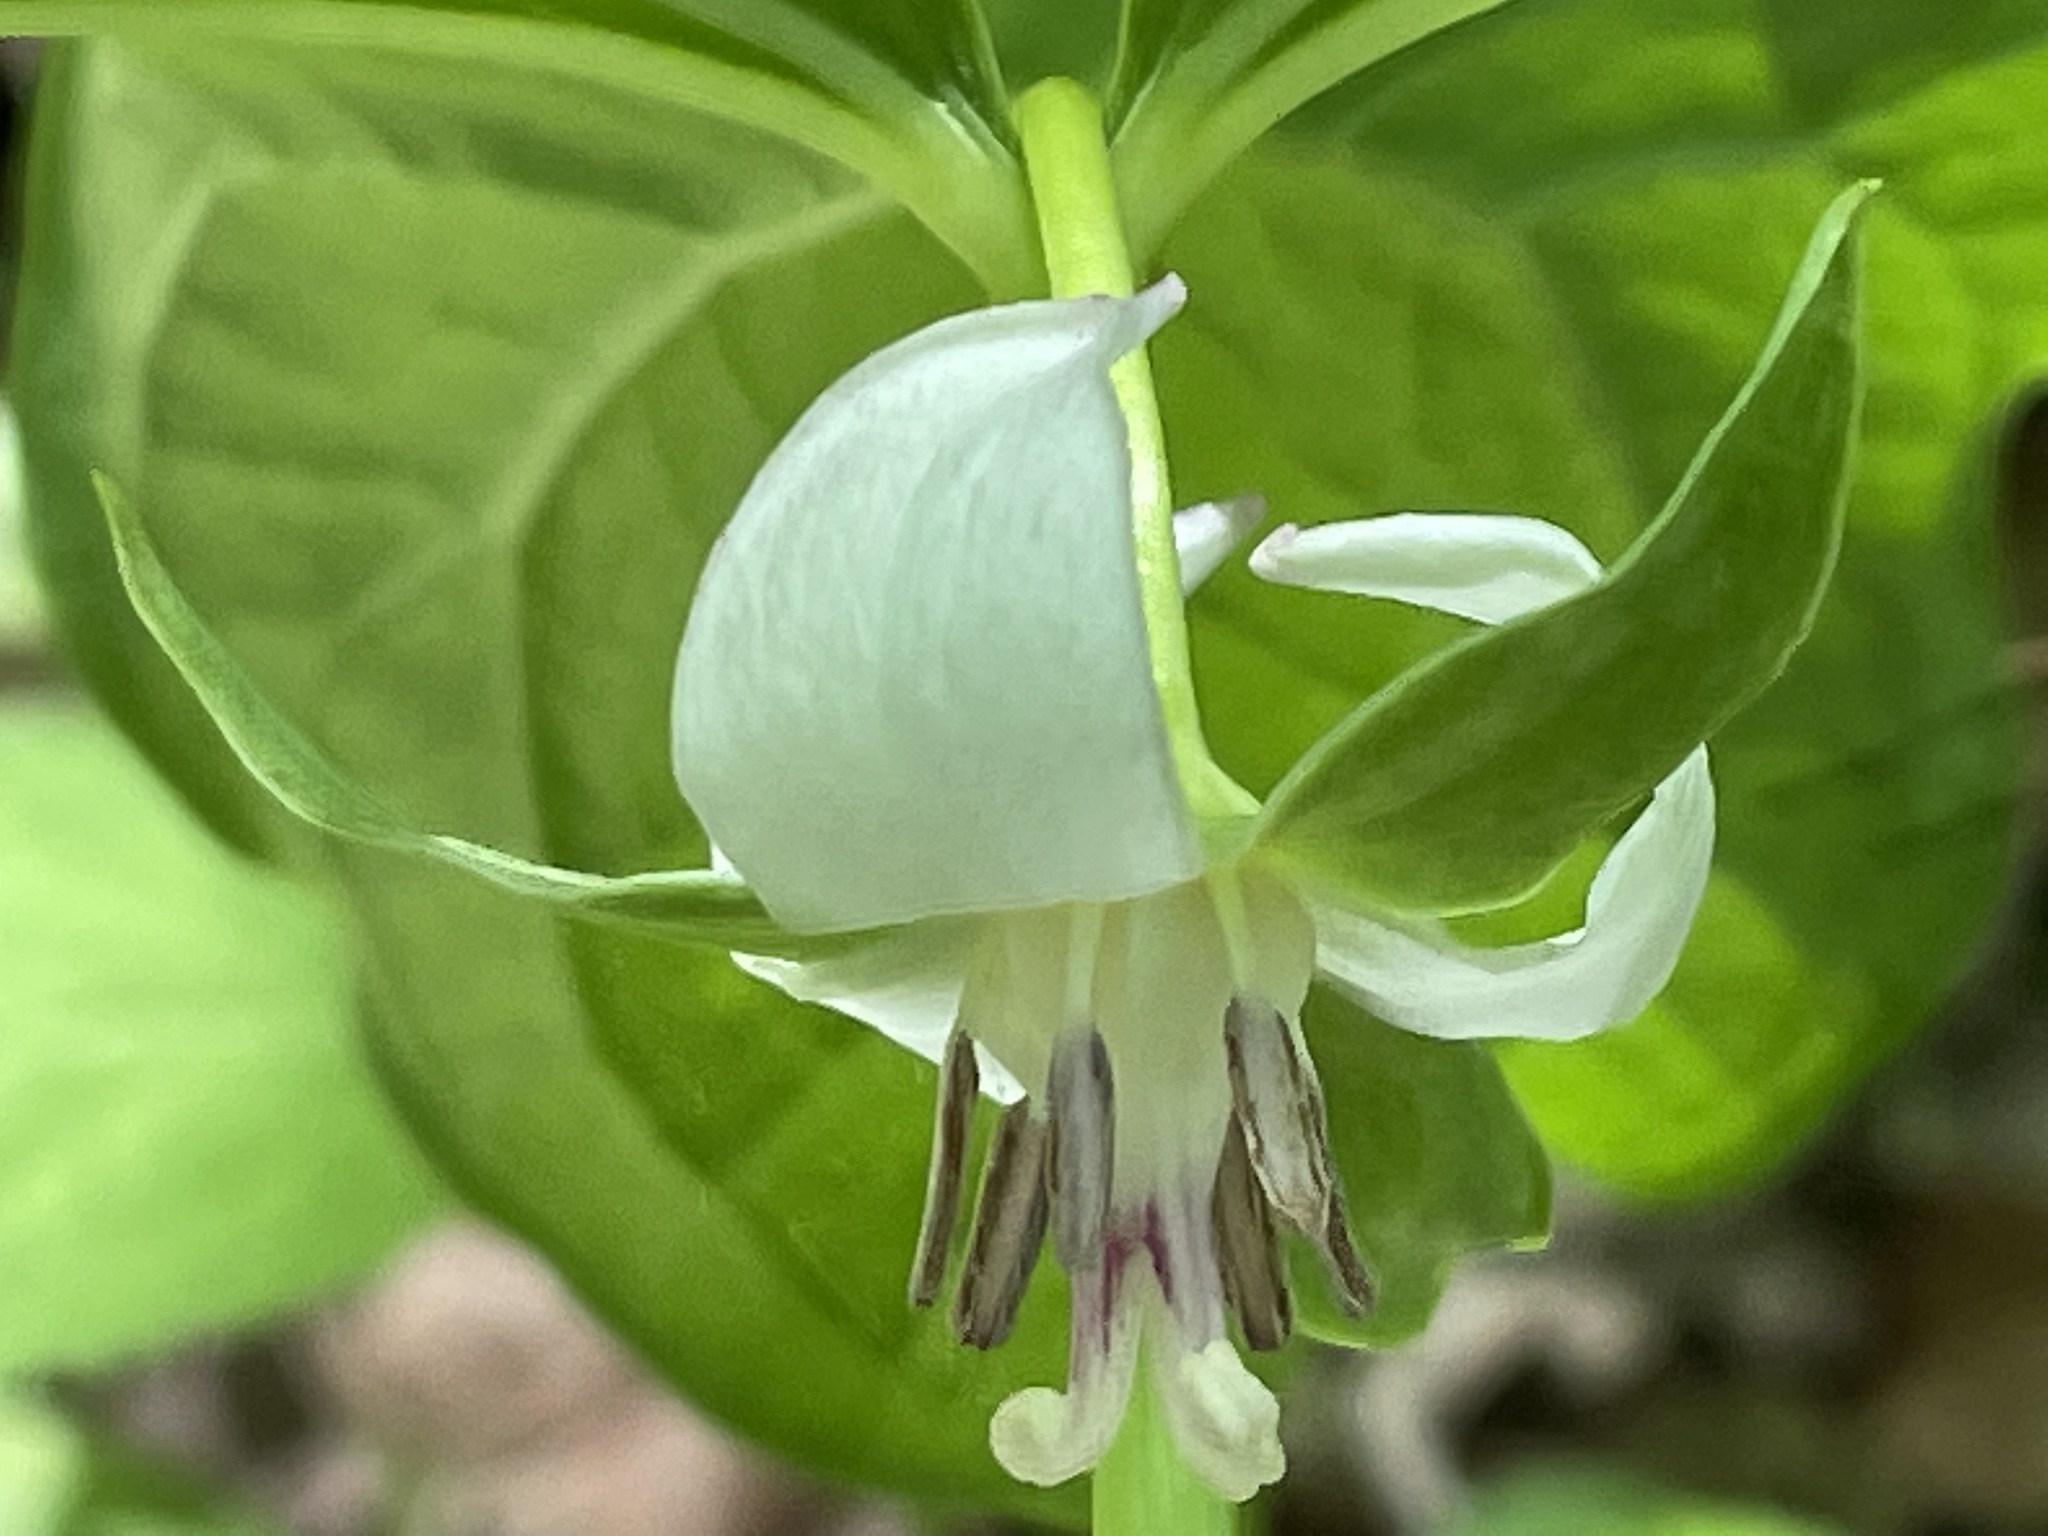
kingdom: Plantae
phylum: Tracheophyta
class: Liliopsida
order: Liliales
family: Melanthiaceae
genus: Trillium
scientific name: Trillium cernuum
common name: Nodding trillium
